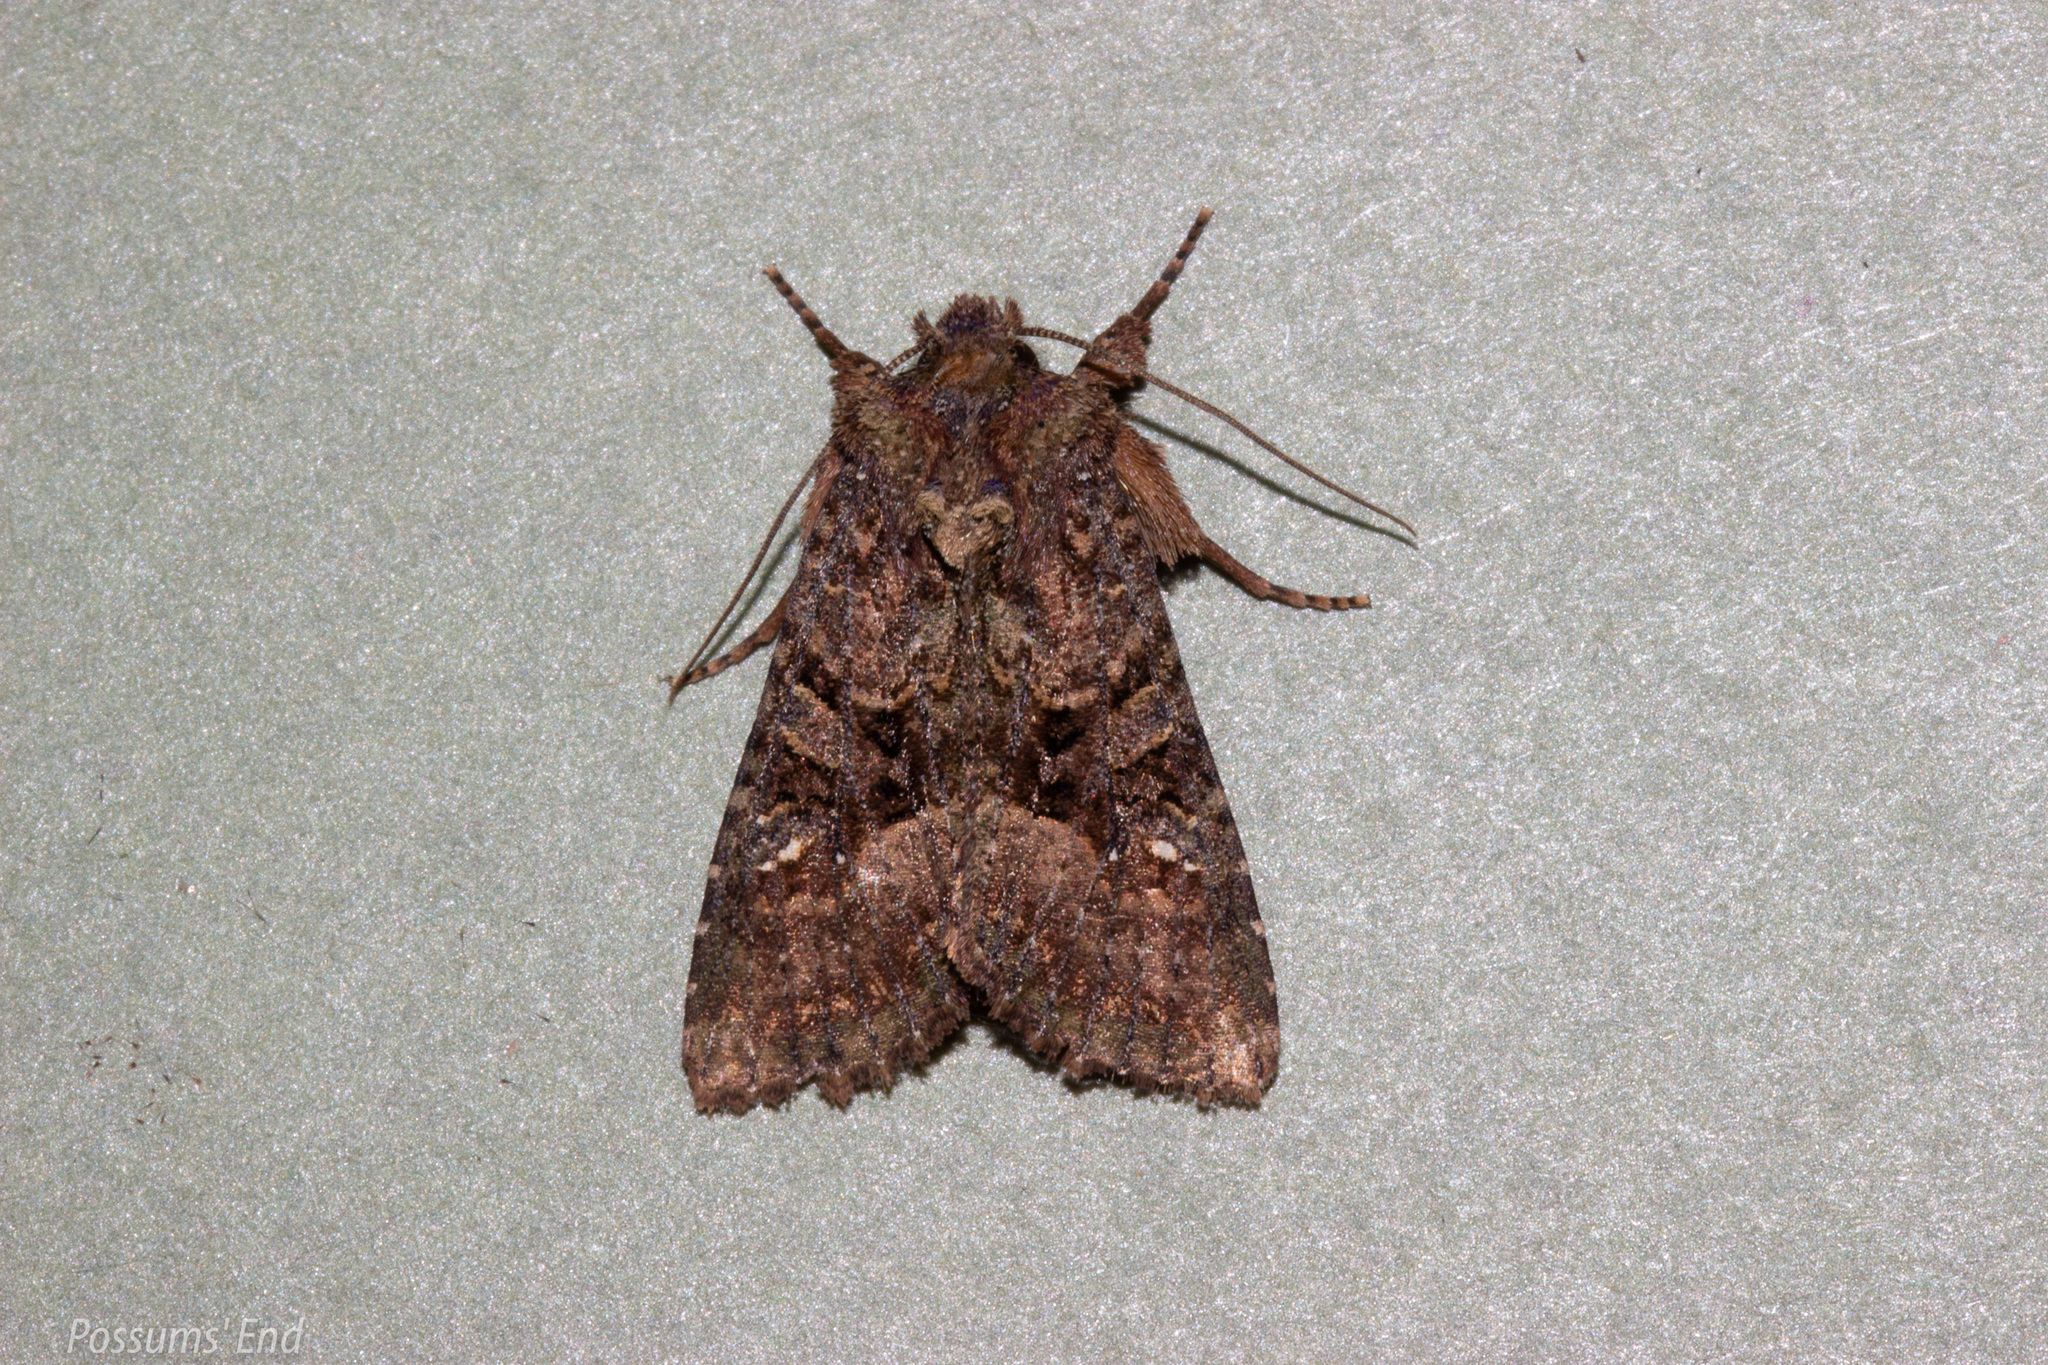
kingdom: Animalia
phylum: Arthropoda
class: Insecta
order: Lepidoptera
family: Noctuidae
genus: Meterana
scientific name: Meterana ochthistis
